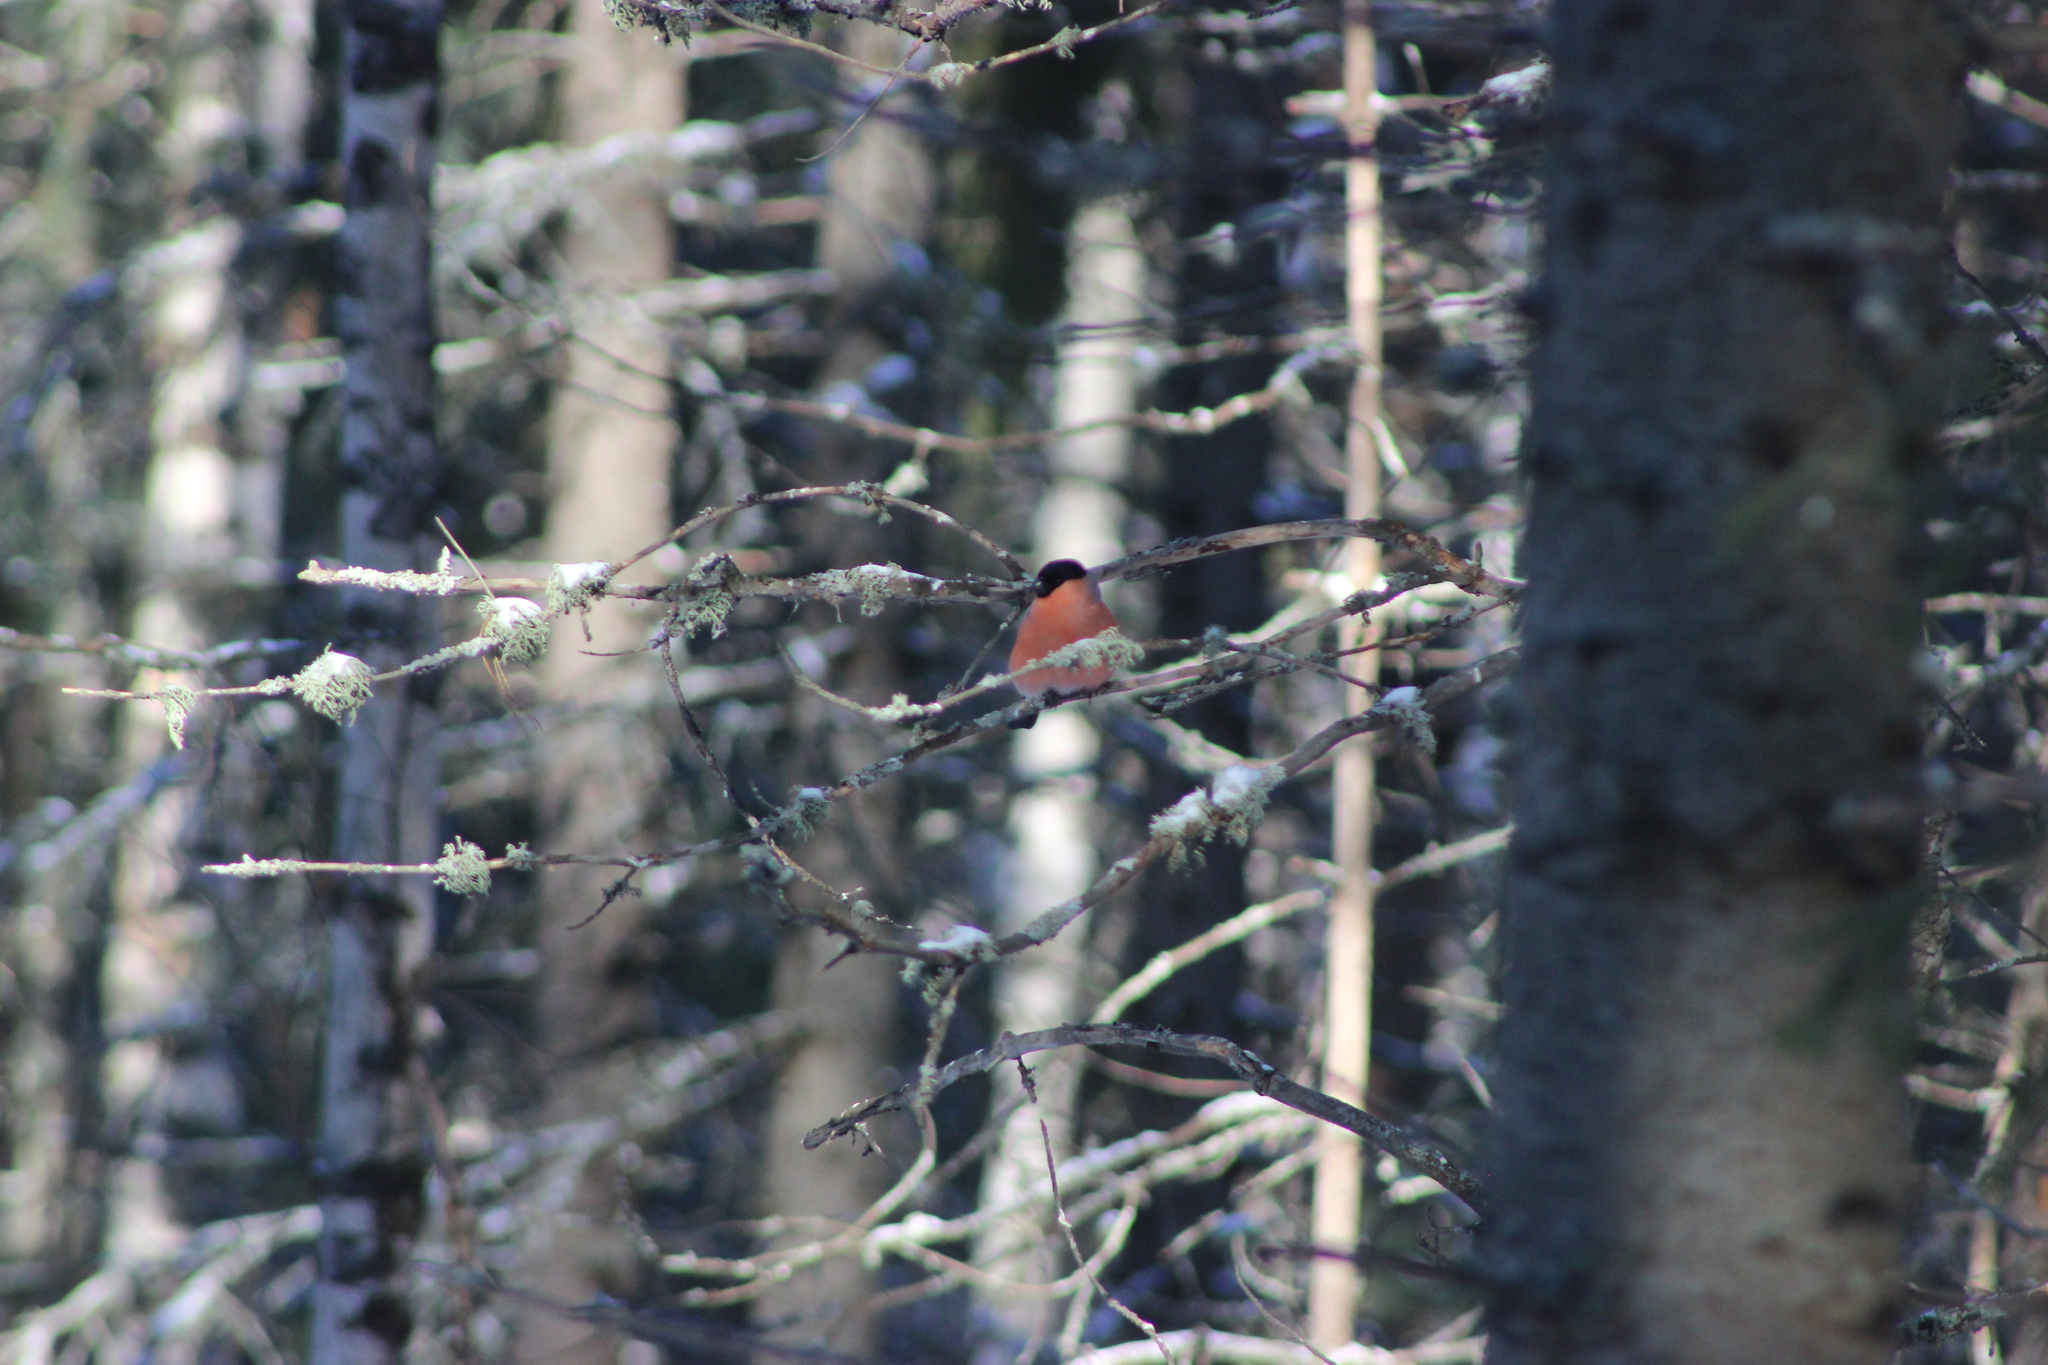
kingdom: Animalia
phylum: Chordata
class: Aves
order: Passeriformes
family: Fringillidae
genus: Pyrrhula
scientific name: Pyrrhula pyrrhula
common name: Eurasian bullfinch
